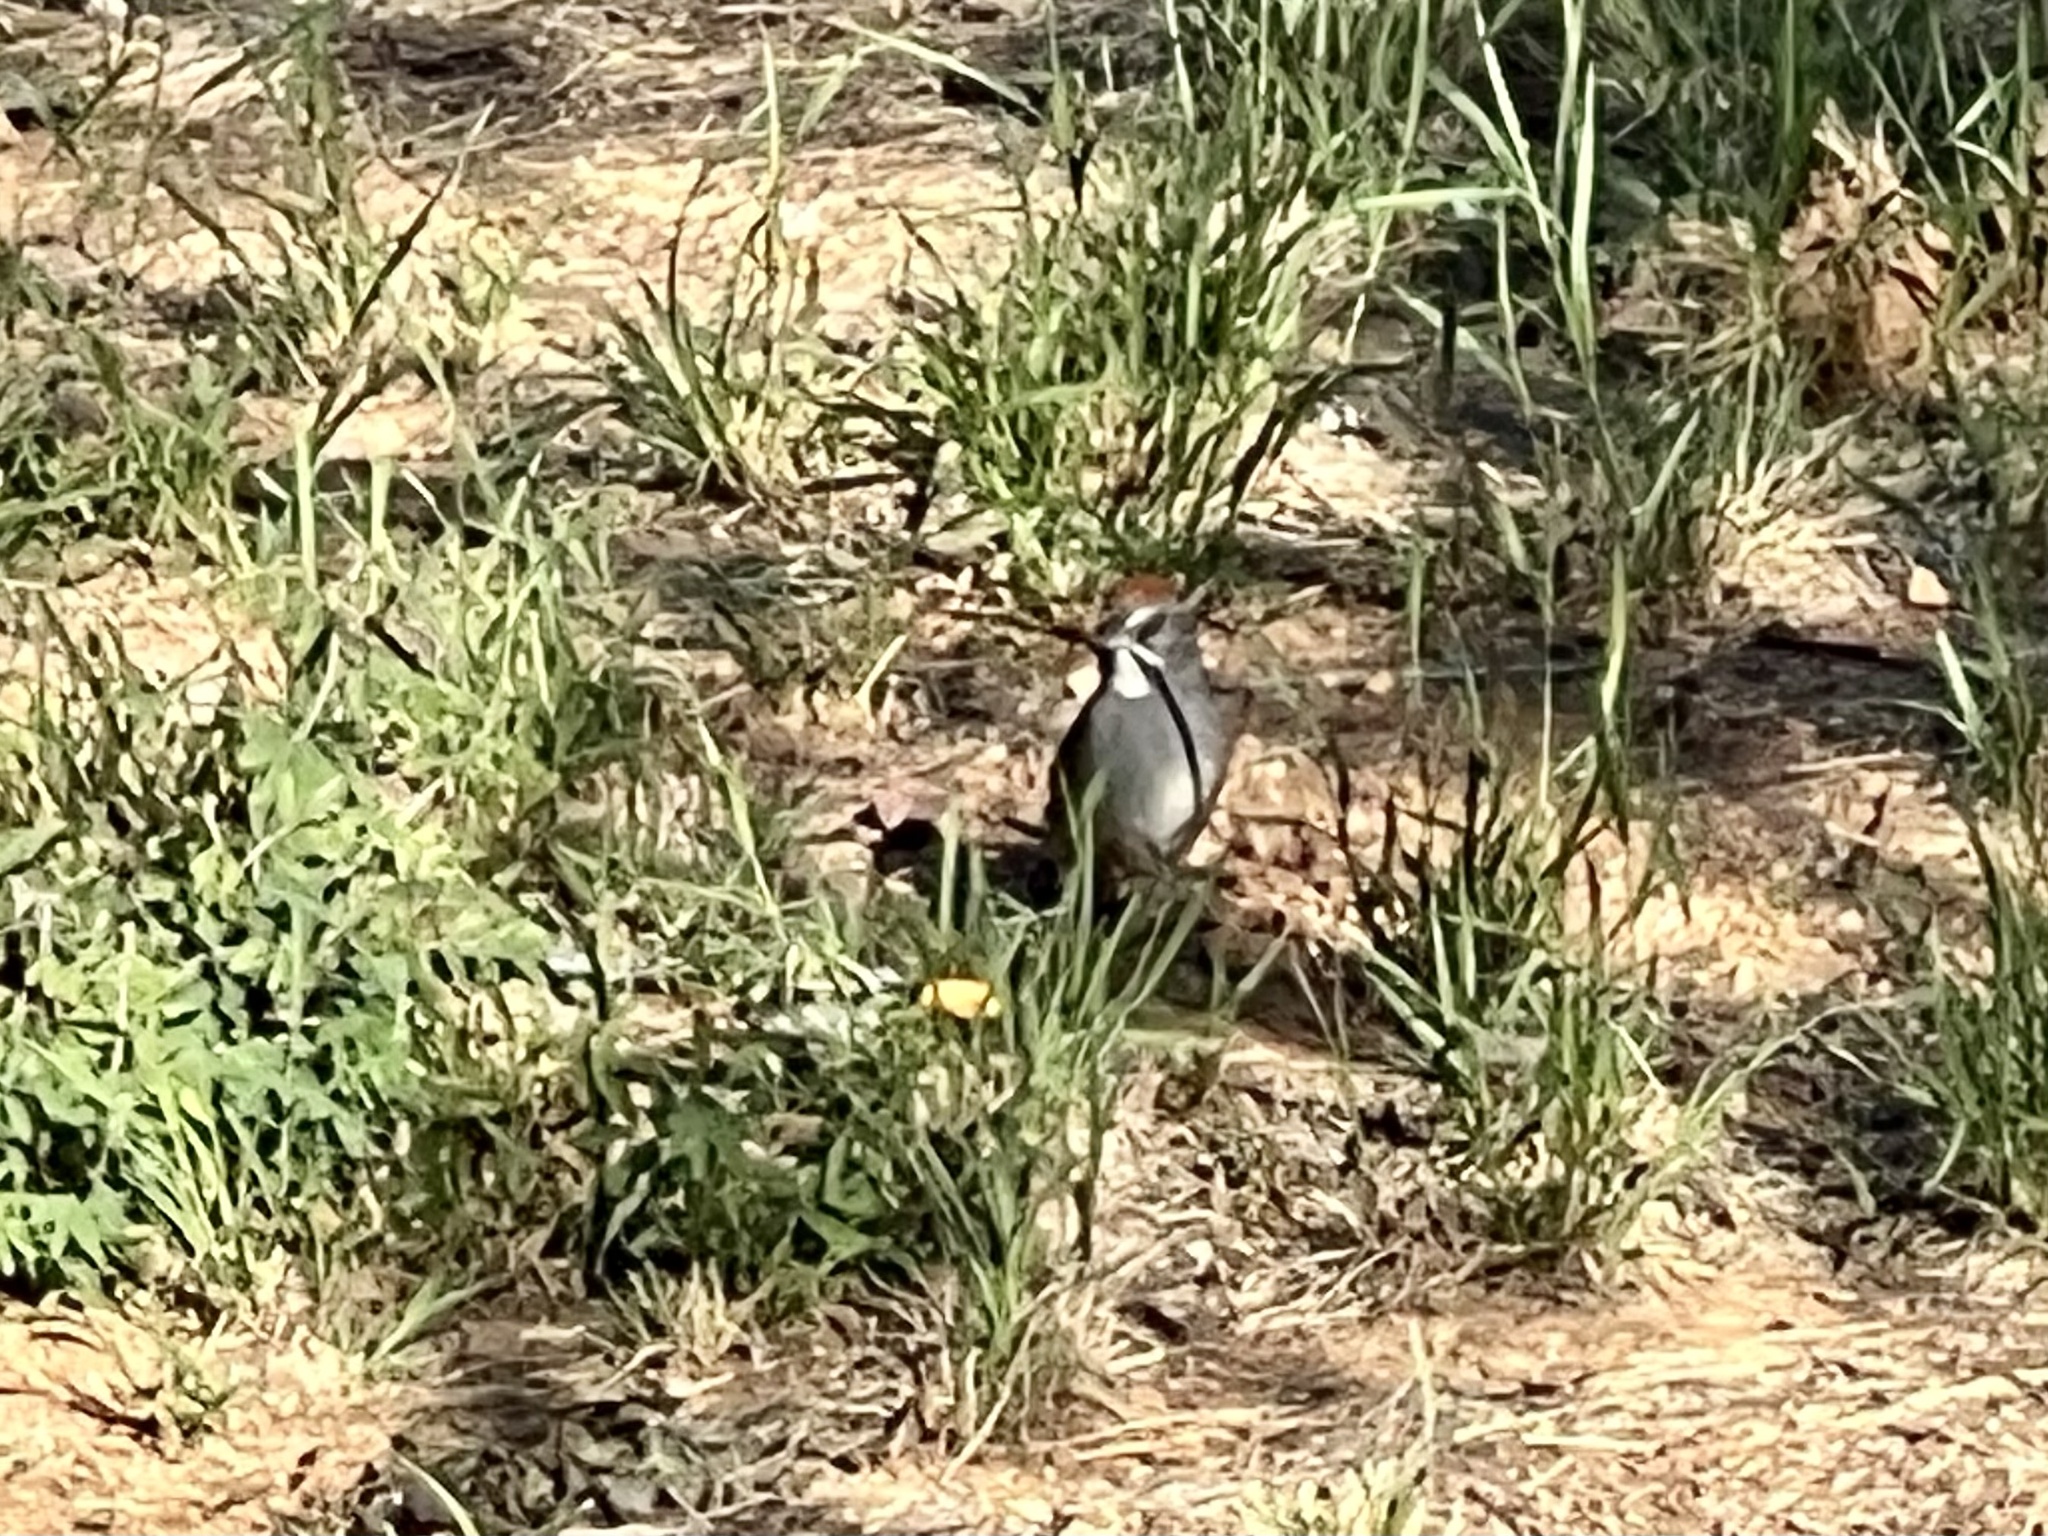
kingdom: Animalia
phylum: Chordata
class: Aves
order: Passeriformes
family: Passerellidae
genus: Pipilo
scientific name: Pipilo chlorurus
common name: Green-tailed towhee
